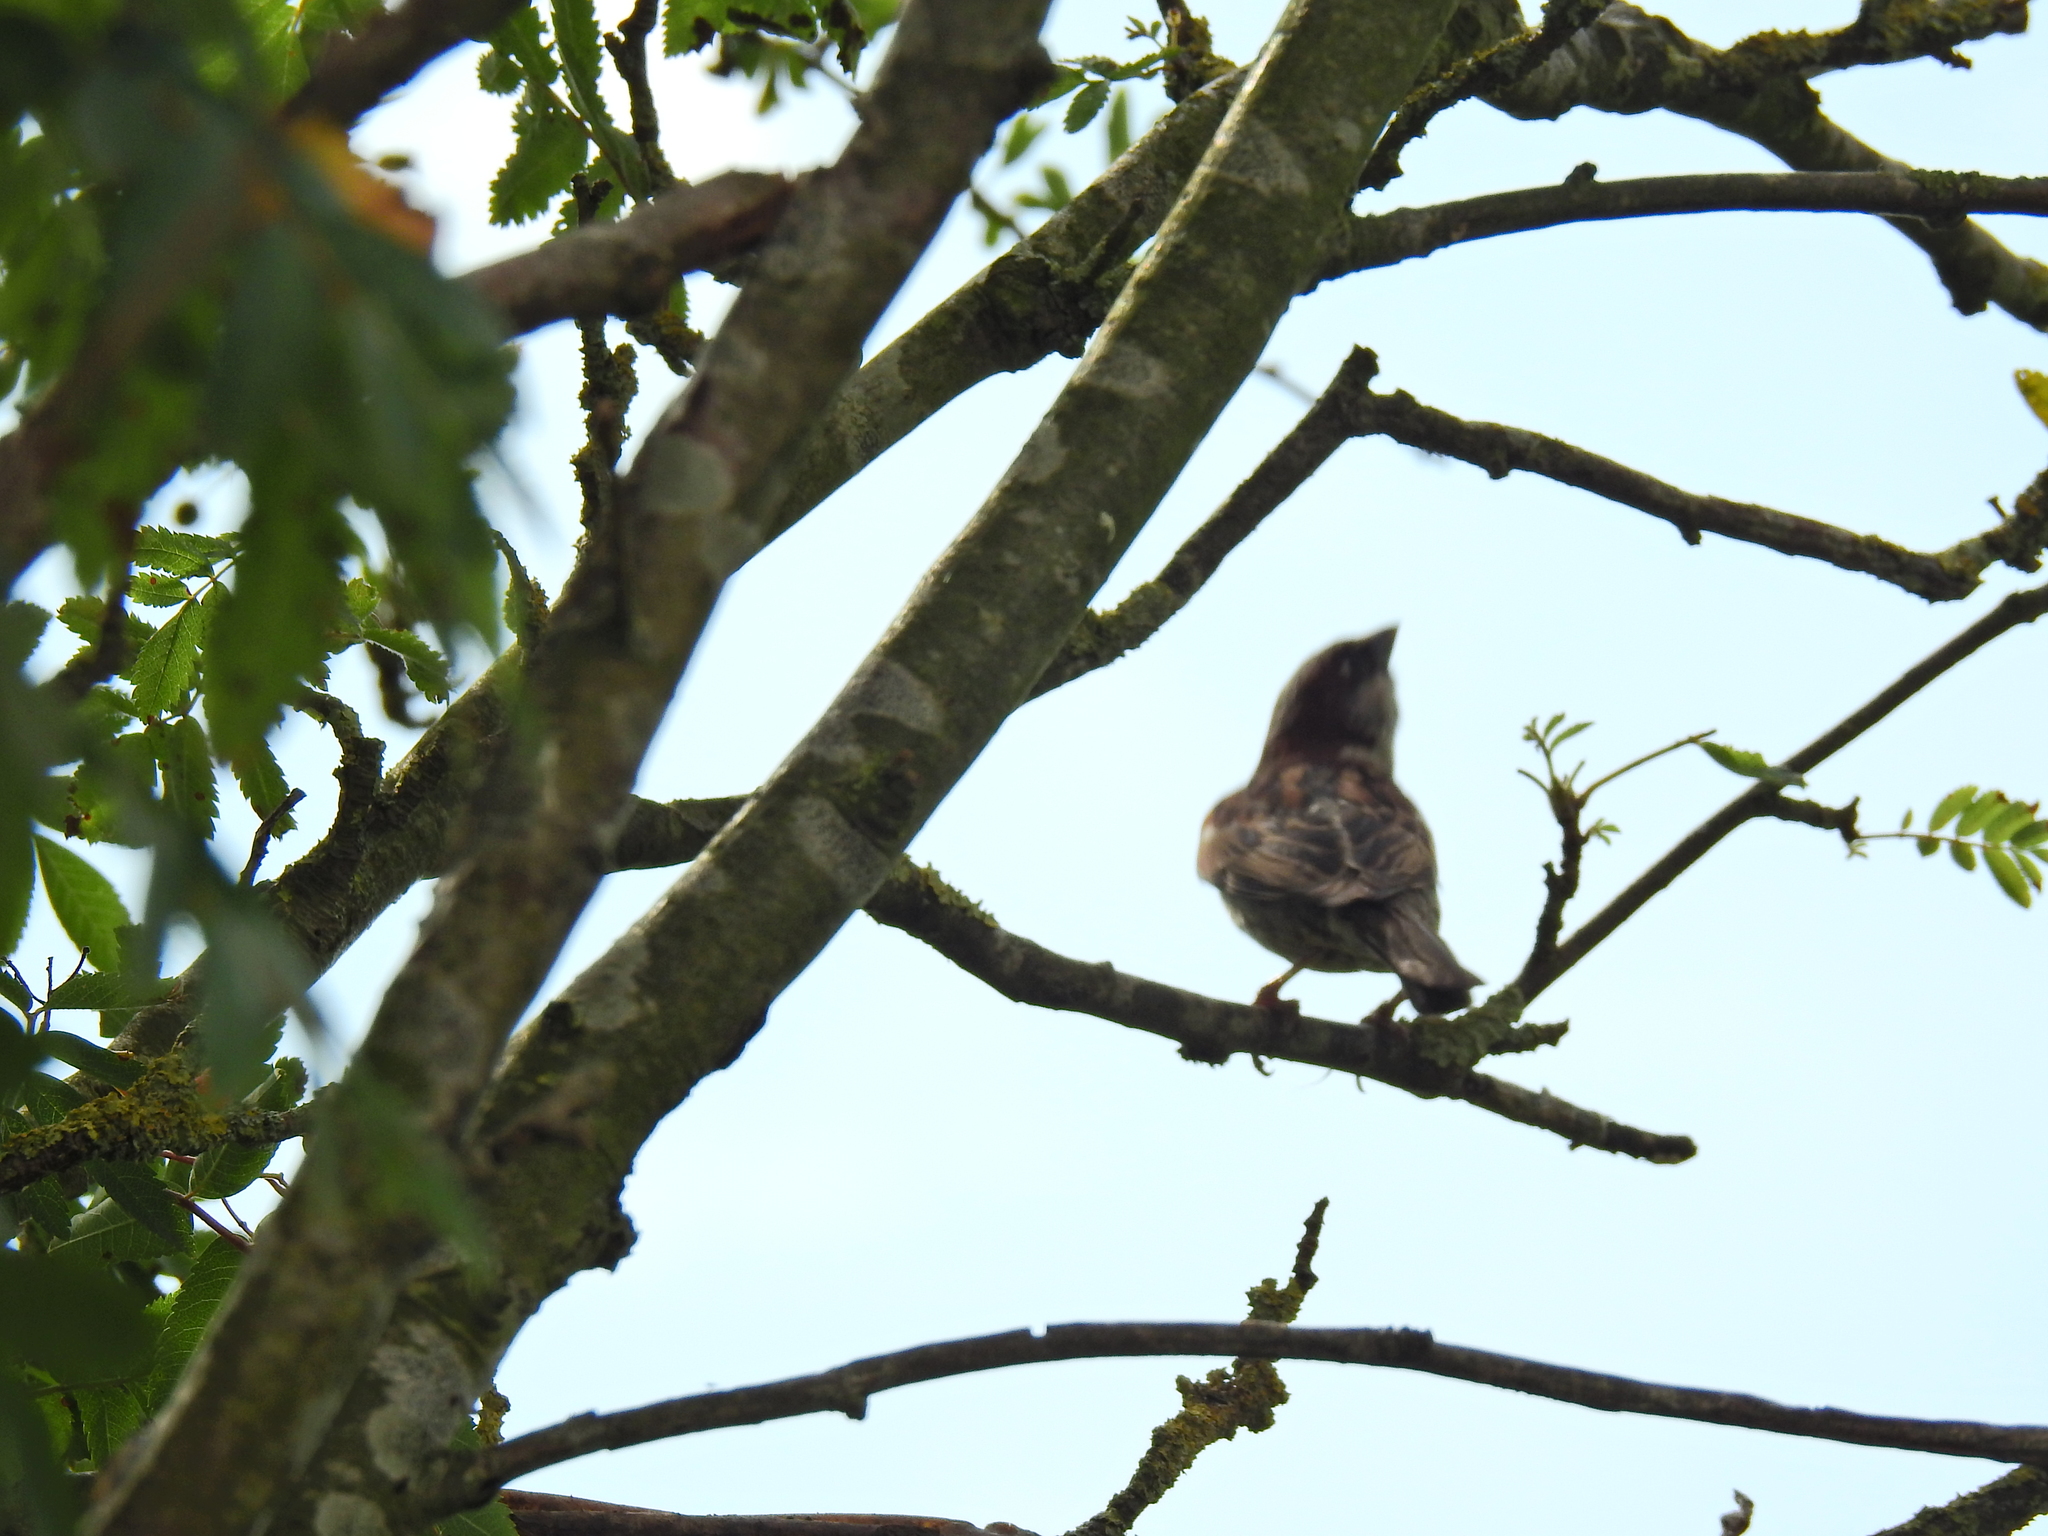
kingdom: Animalia
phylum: Chordata
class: Aves
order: Passeriformes
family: Passeridae
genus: Passer
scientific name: Passer domesticus
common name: House sparrow
